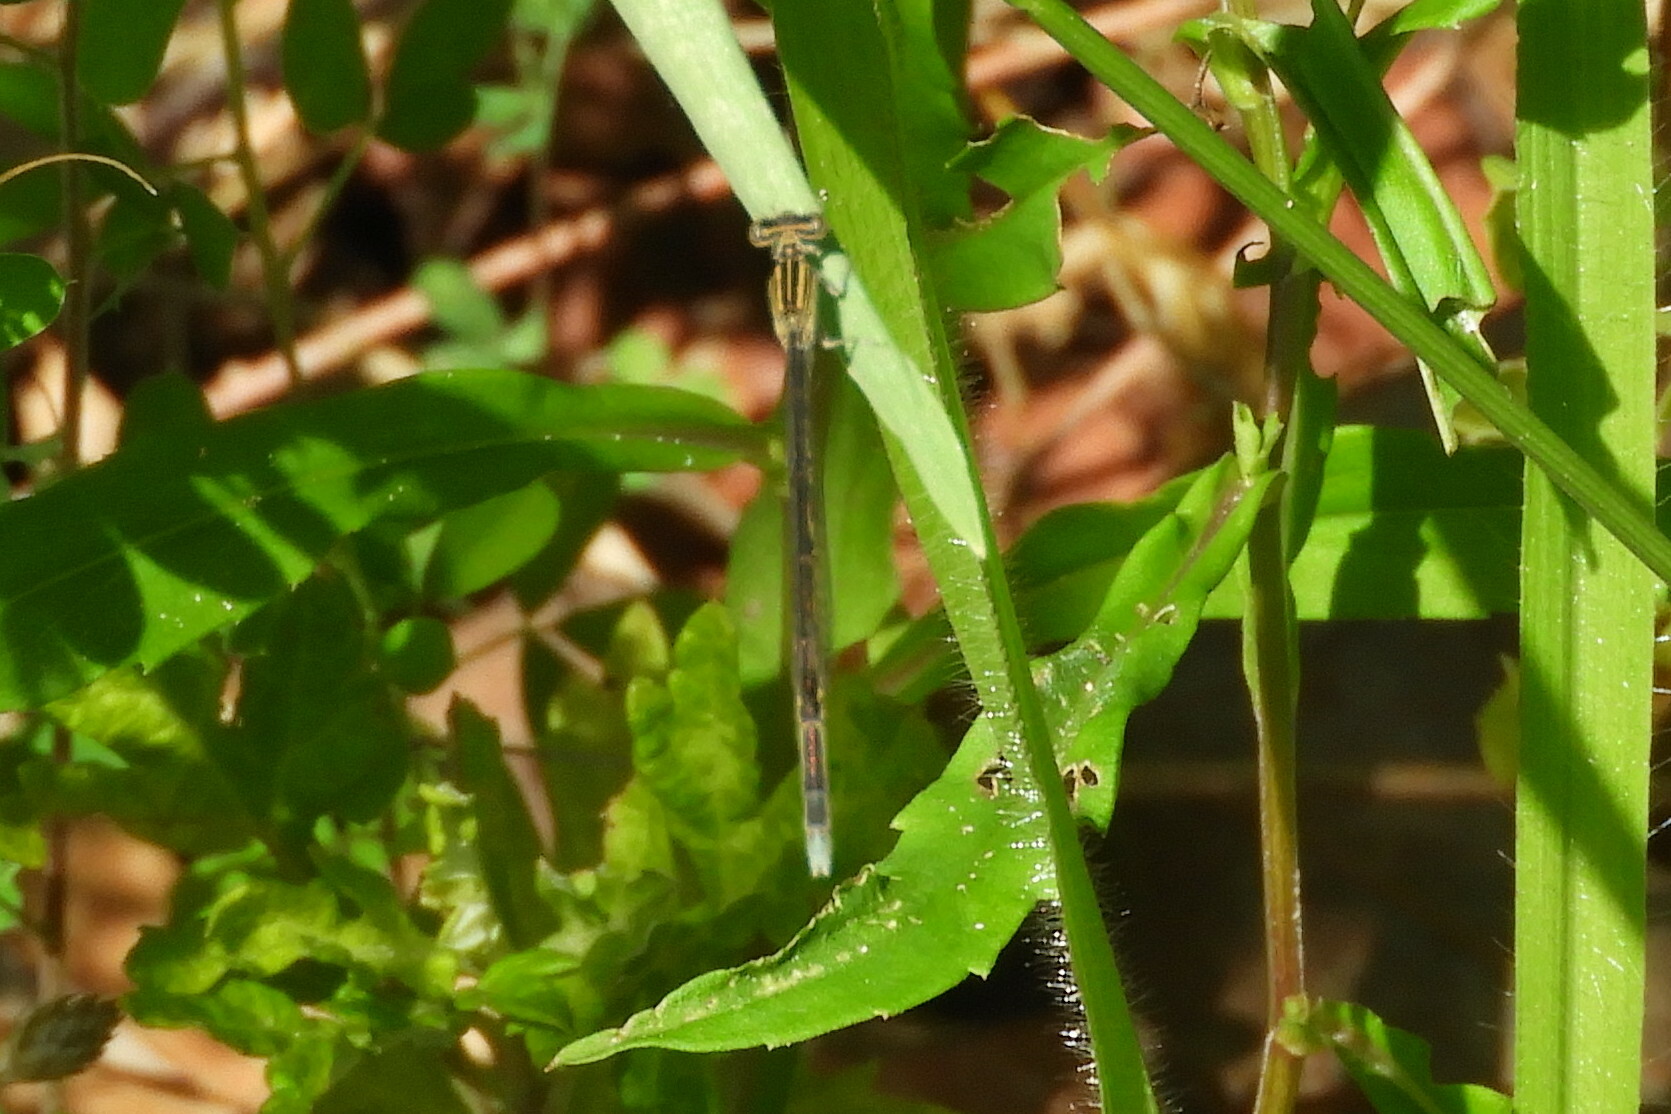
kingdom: Animalia
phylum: Arthropoda
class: Insecta
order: Odonata
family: Coenagrionidae
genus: Enallagma
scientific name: Enallagma basidens
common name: Double-striped bluet
